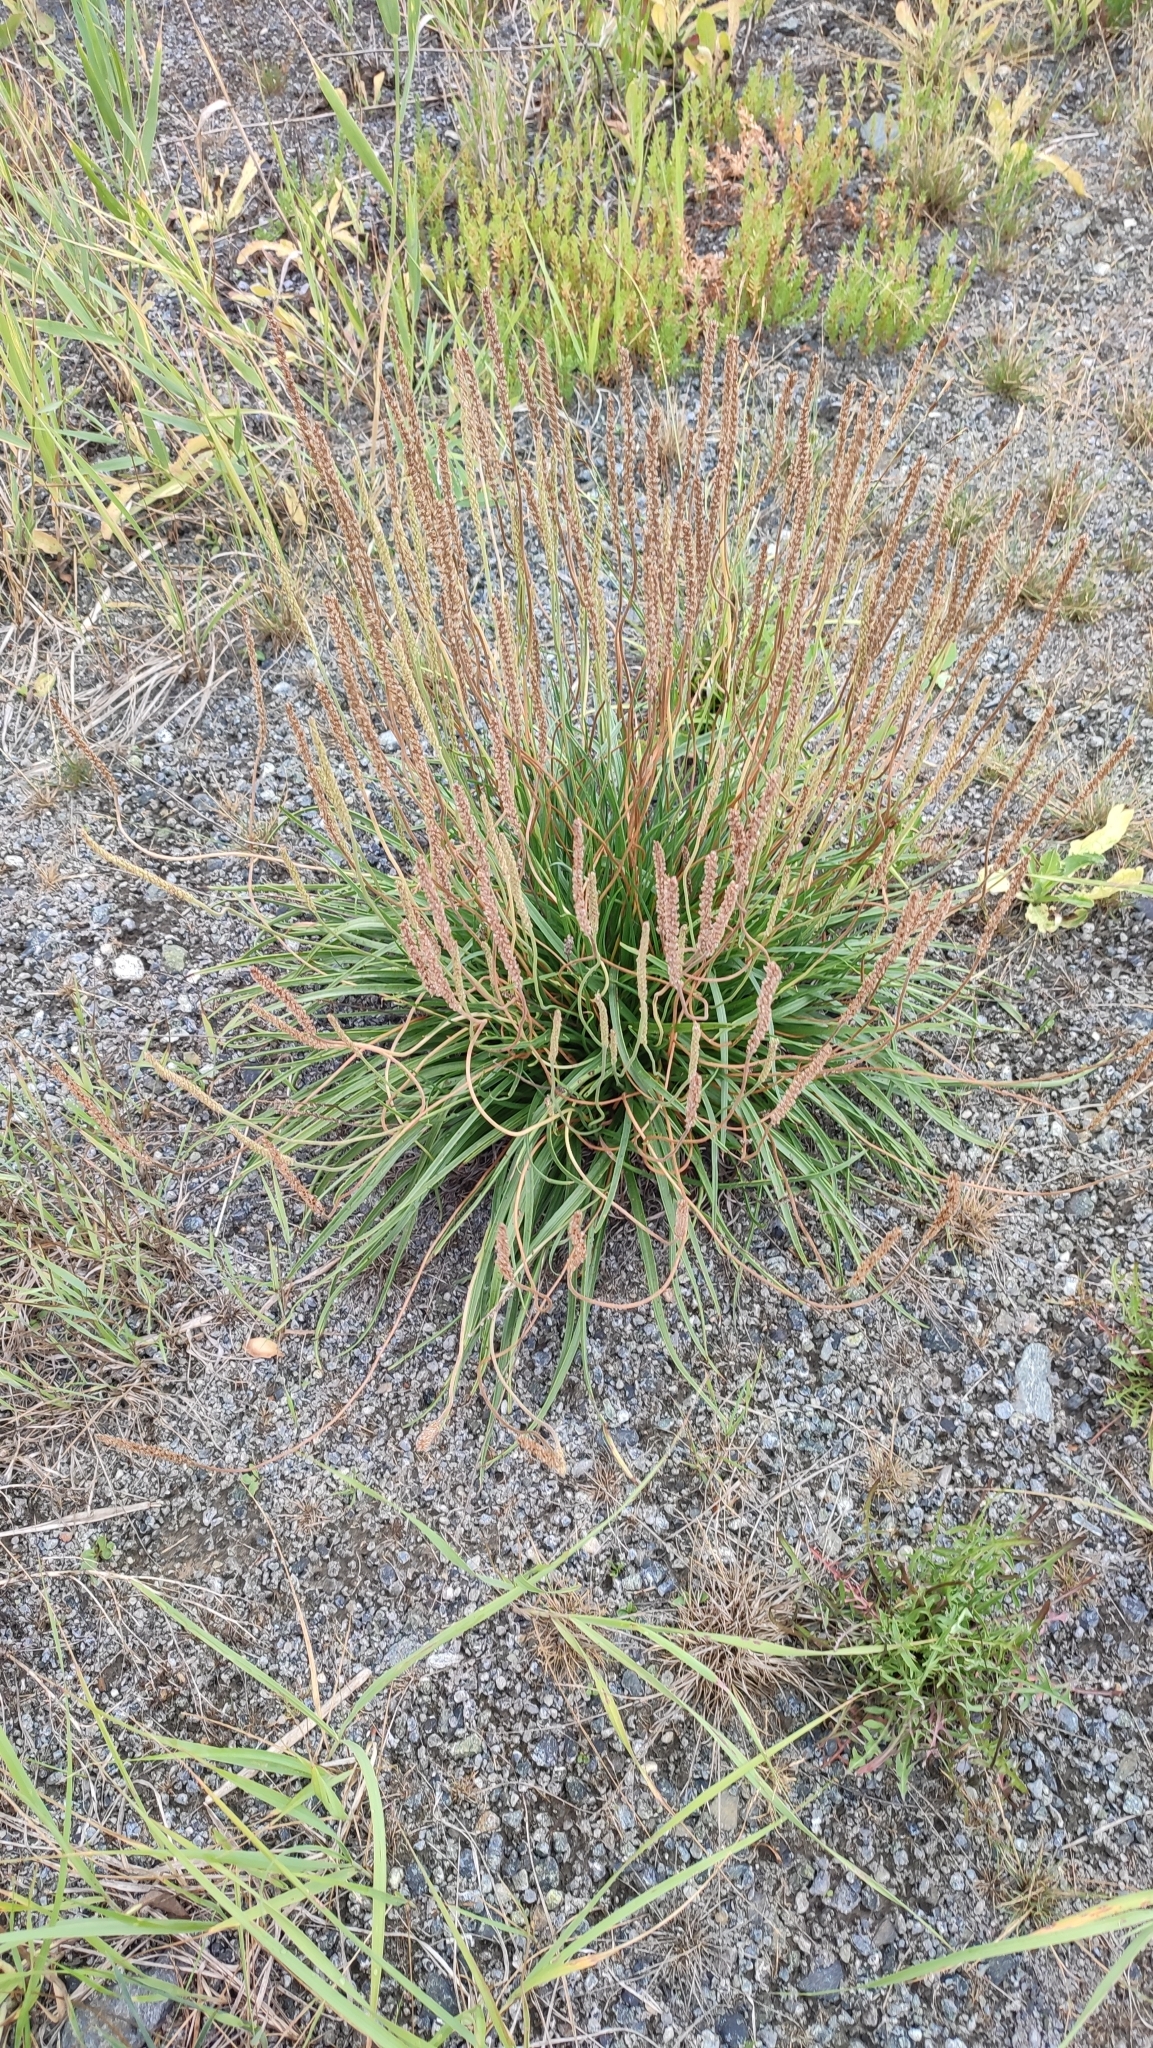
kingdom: Plantae
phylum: Tracheophyta
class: Magnoliopsida
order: Lamiales
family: Plantaginaceae
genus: Plantago
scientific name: Plantago salsa
